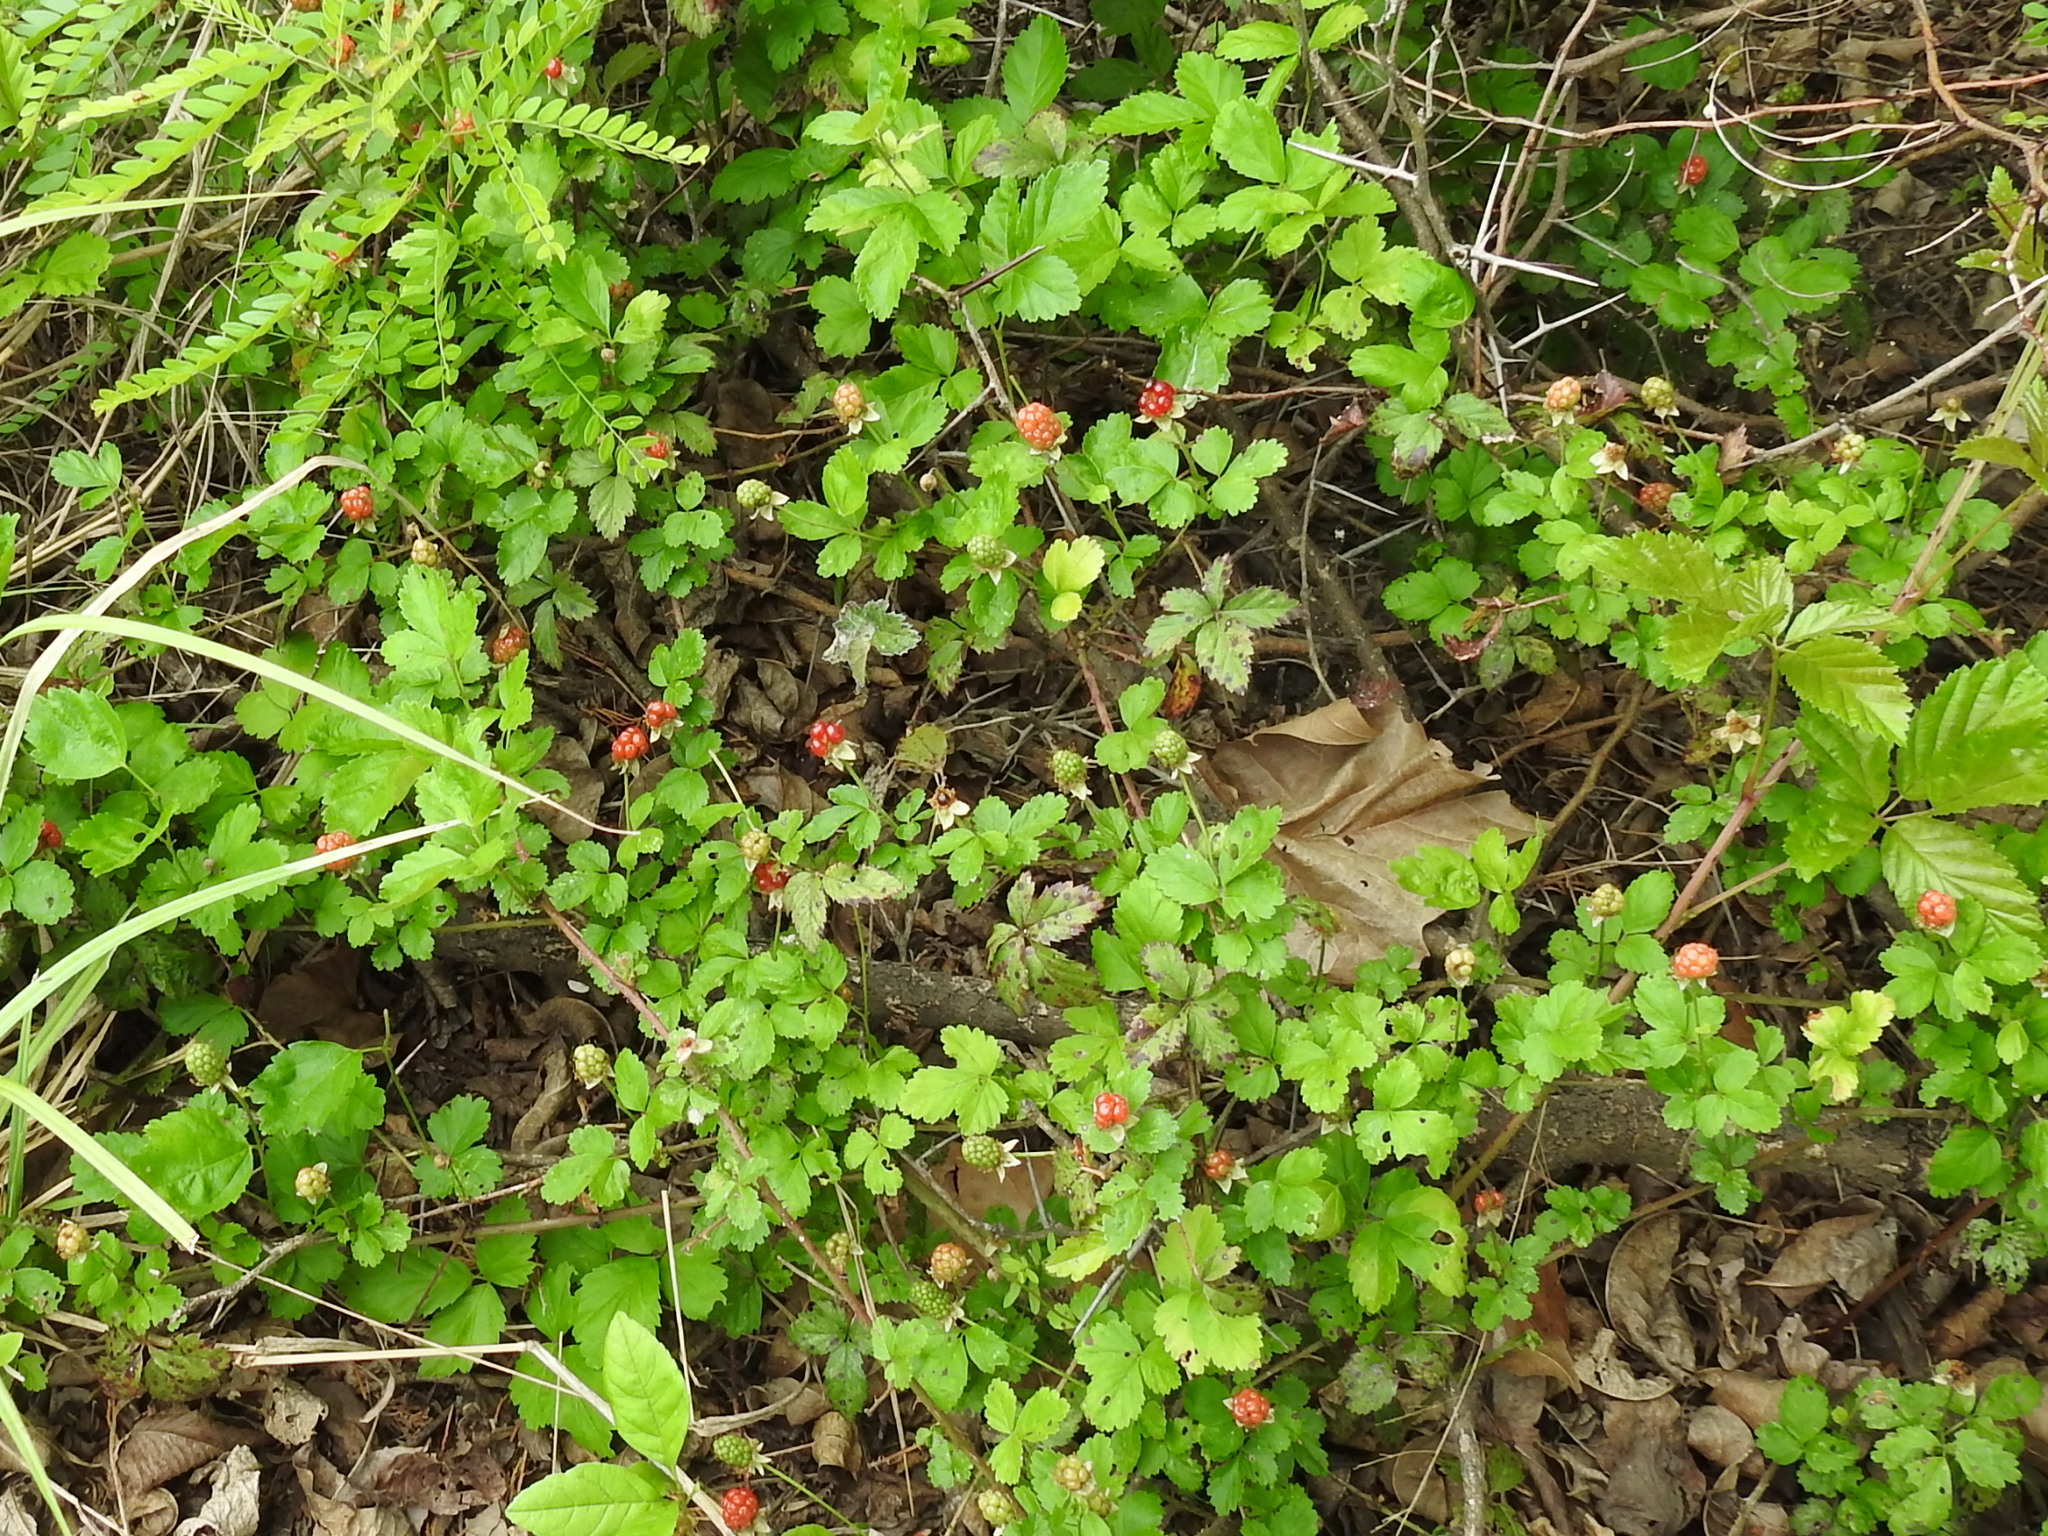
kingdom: Plantae
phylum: Tracheophyta
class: Magnoliopsida
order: Rosales
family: Rosaceae
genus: Rubus
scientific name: Rubus trivialis
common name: Southern dewberry
